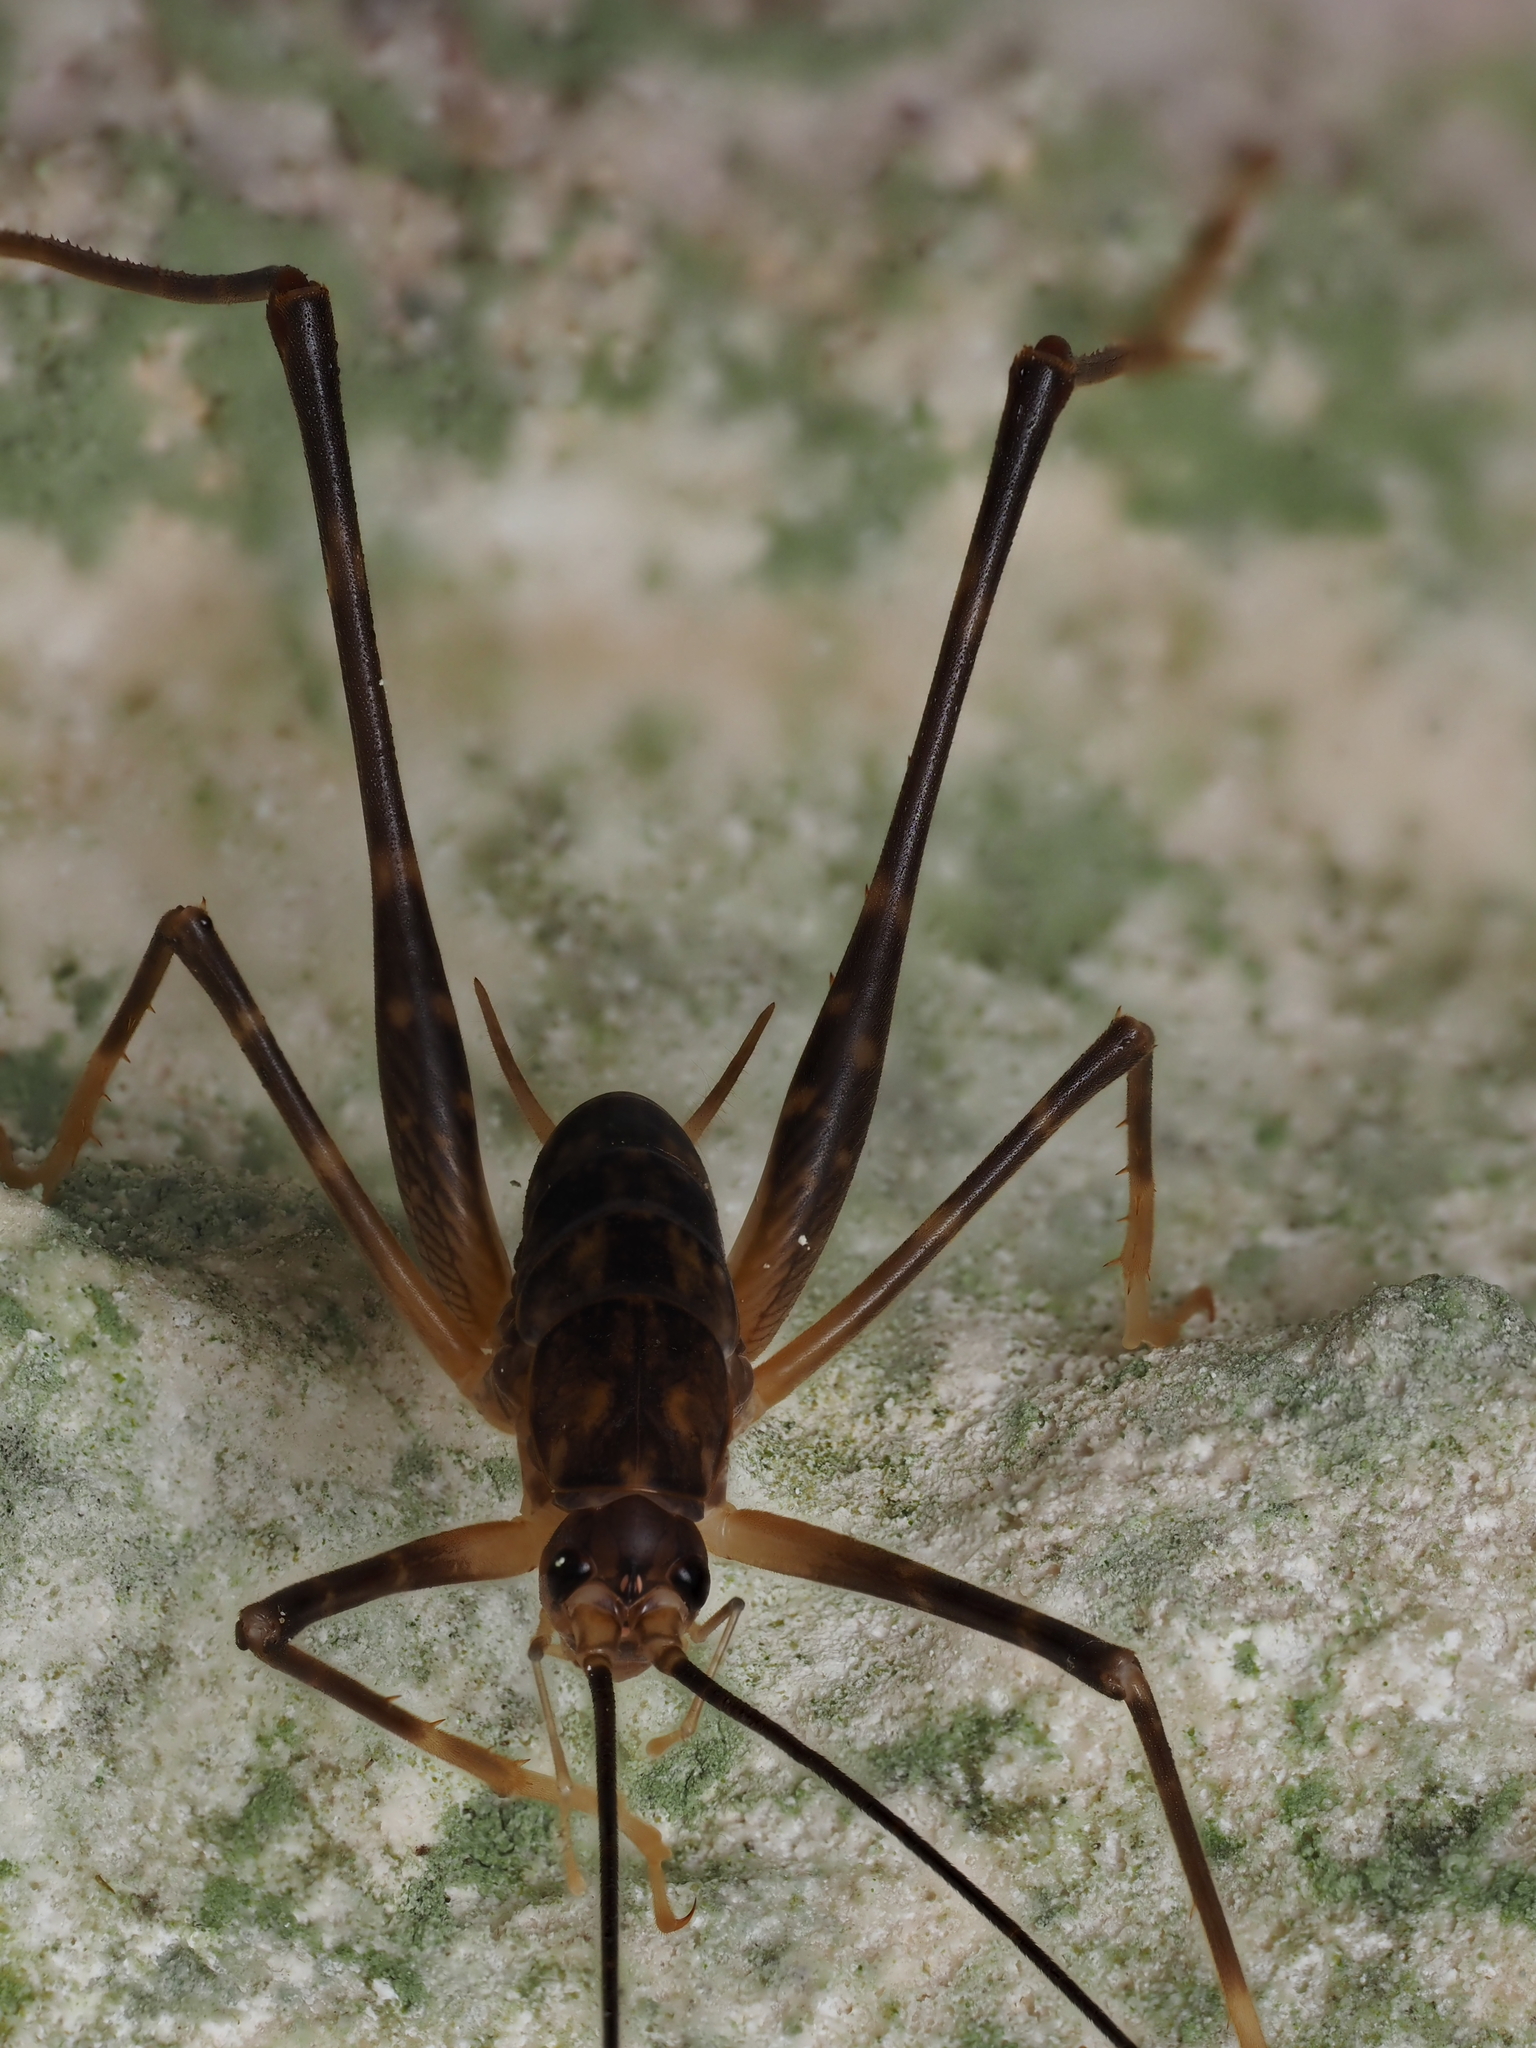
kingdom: Animalia
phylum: Arthropoda
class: Insecta
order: Orthoptera
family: Rhaphidophoridae
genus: Pachyrhamma
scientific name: Pachyrhamma waitomoensis
